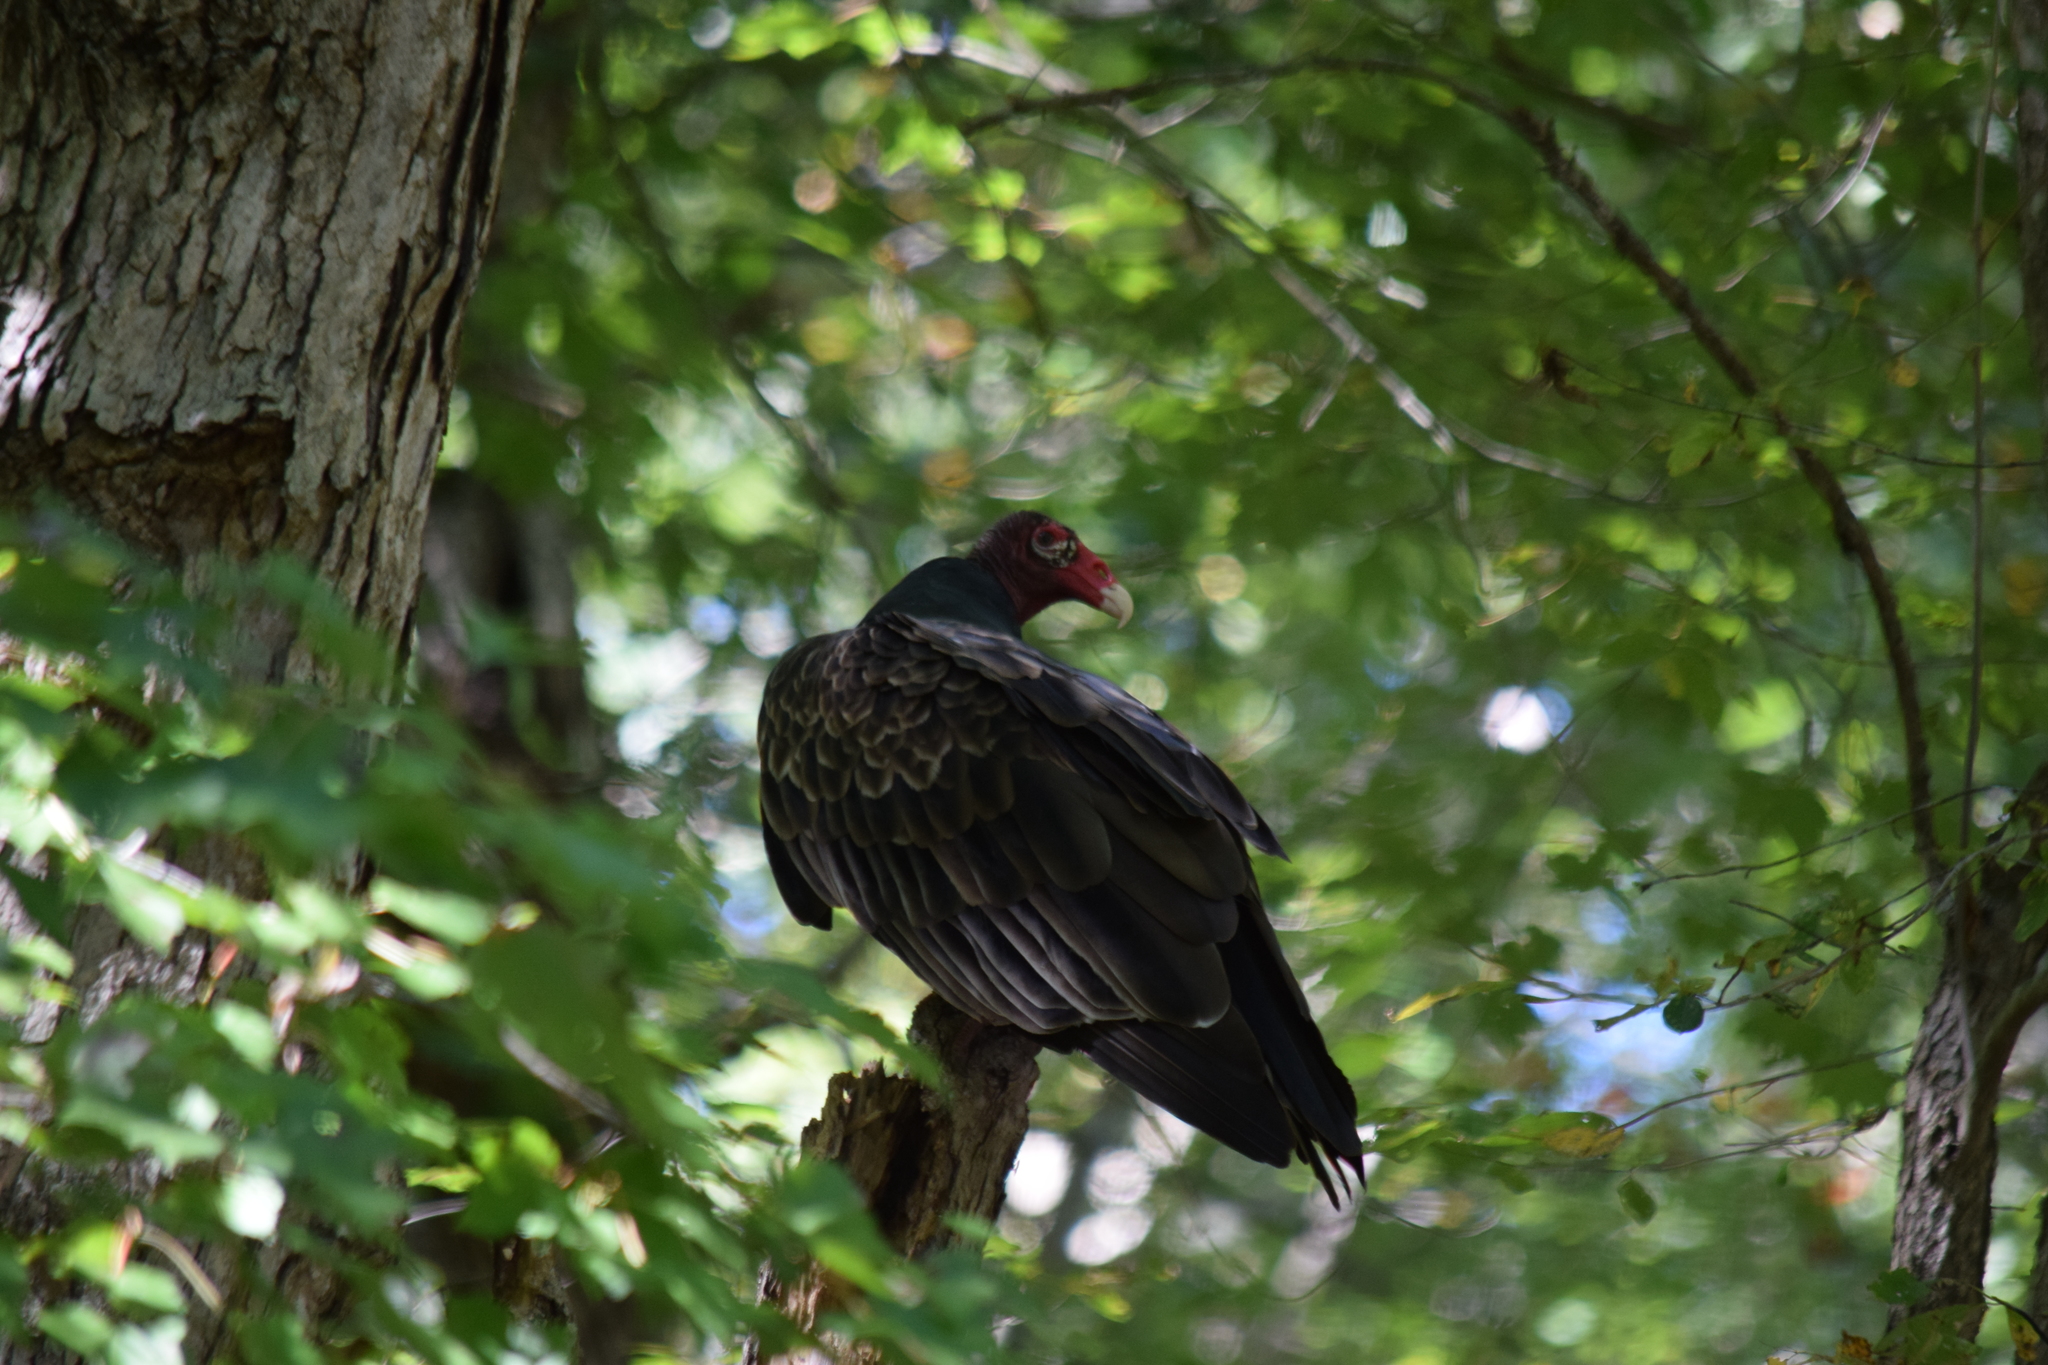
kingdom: Animalia
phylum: Chordata
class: Aves
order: Accipitriformes
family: Cathartidae
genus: Cathartes
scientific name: Cathartes aura
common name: Turkey vulture
